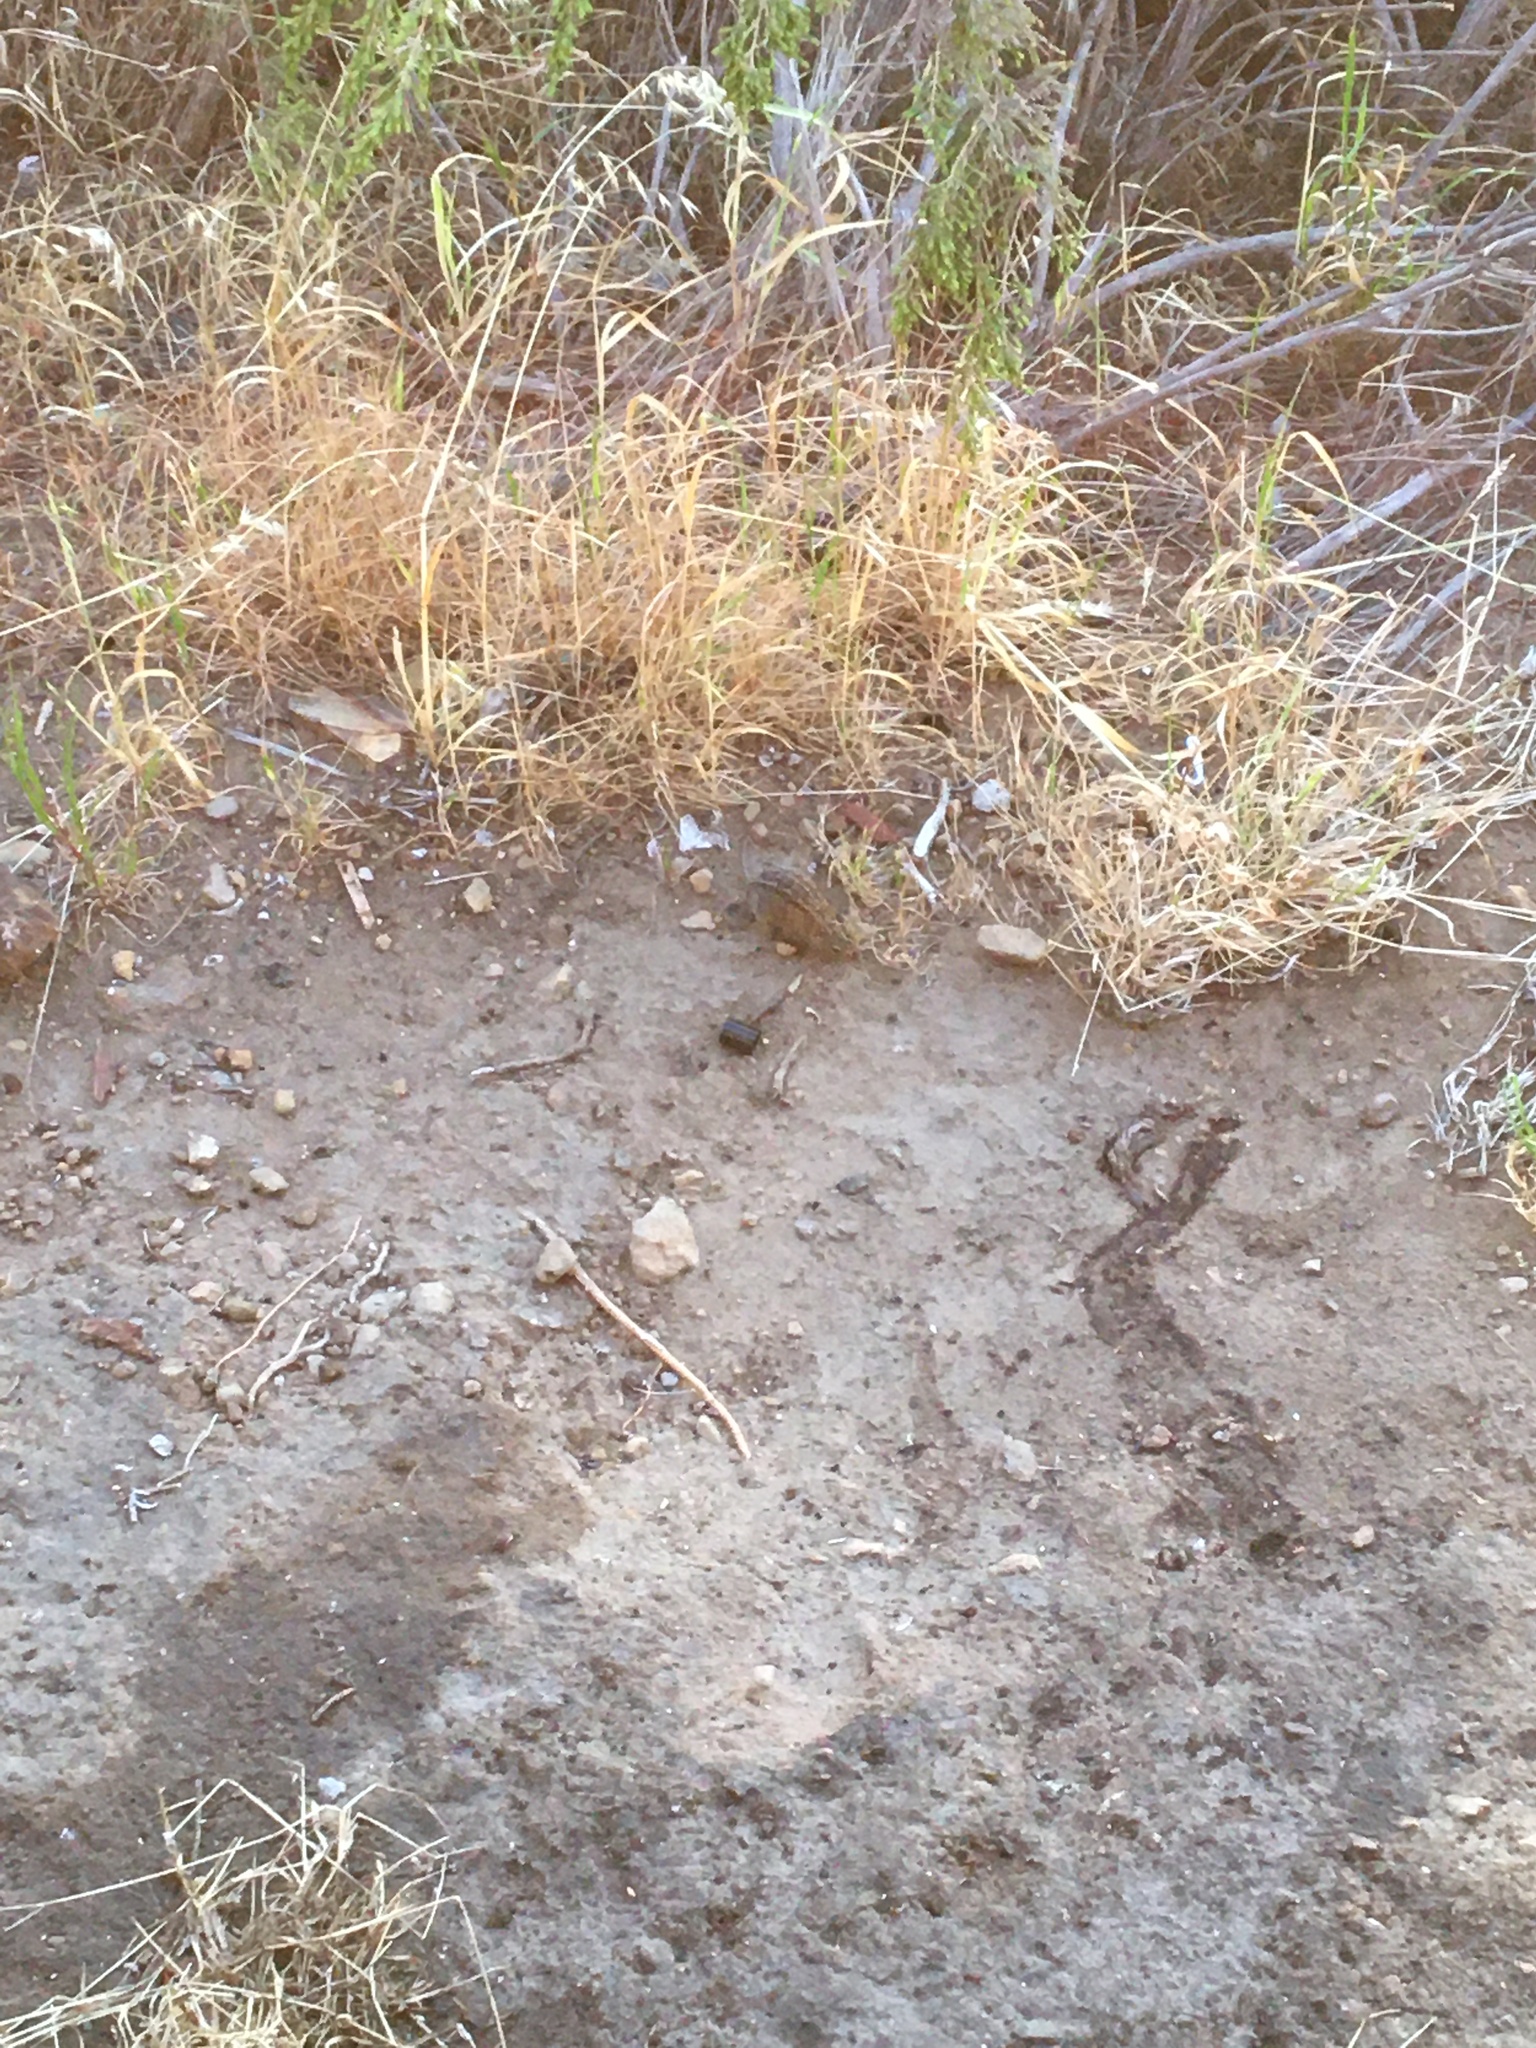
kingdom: Animalia
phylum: Chordata
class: Mammalia
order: Rodentia
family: Muridae
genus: Rhabdomys
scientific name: Rhabdomys pumilio
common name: Xeric four-striped grass rat
